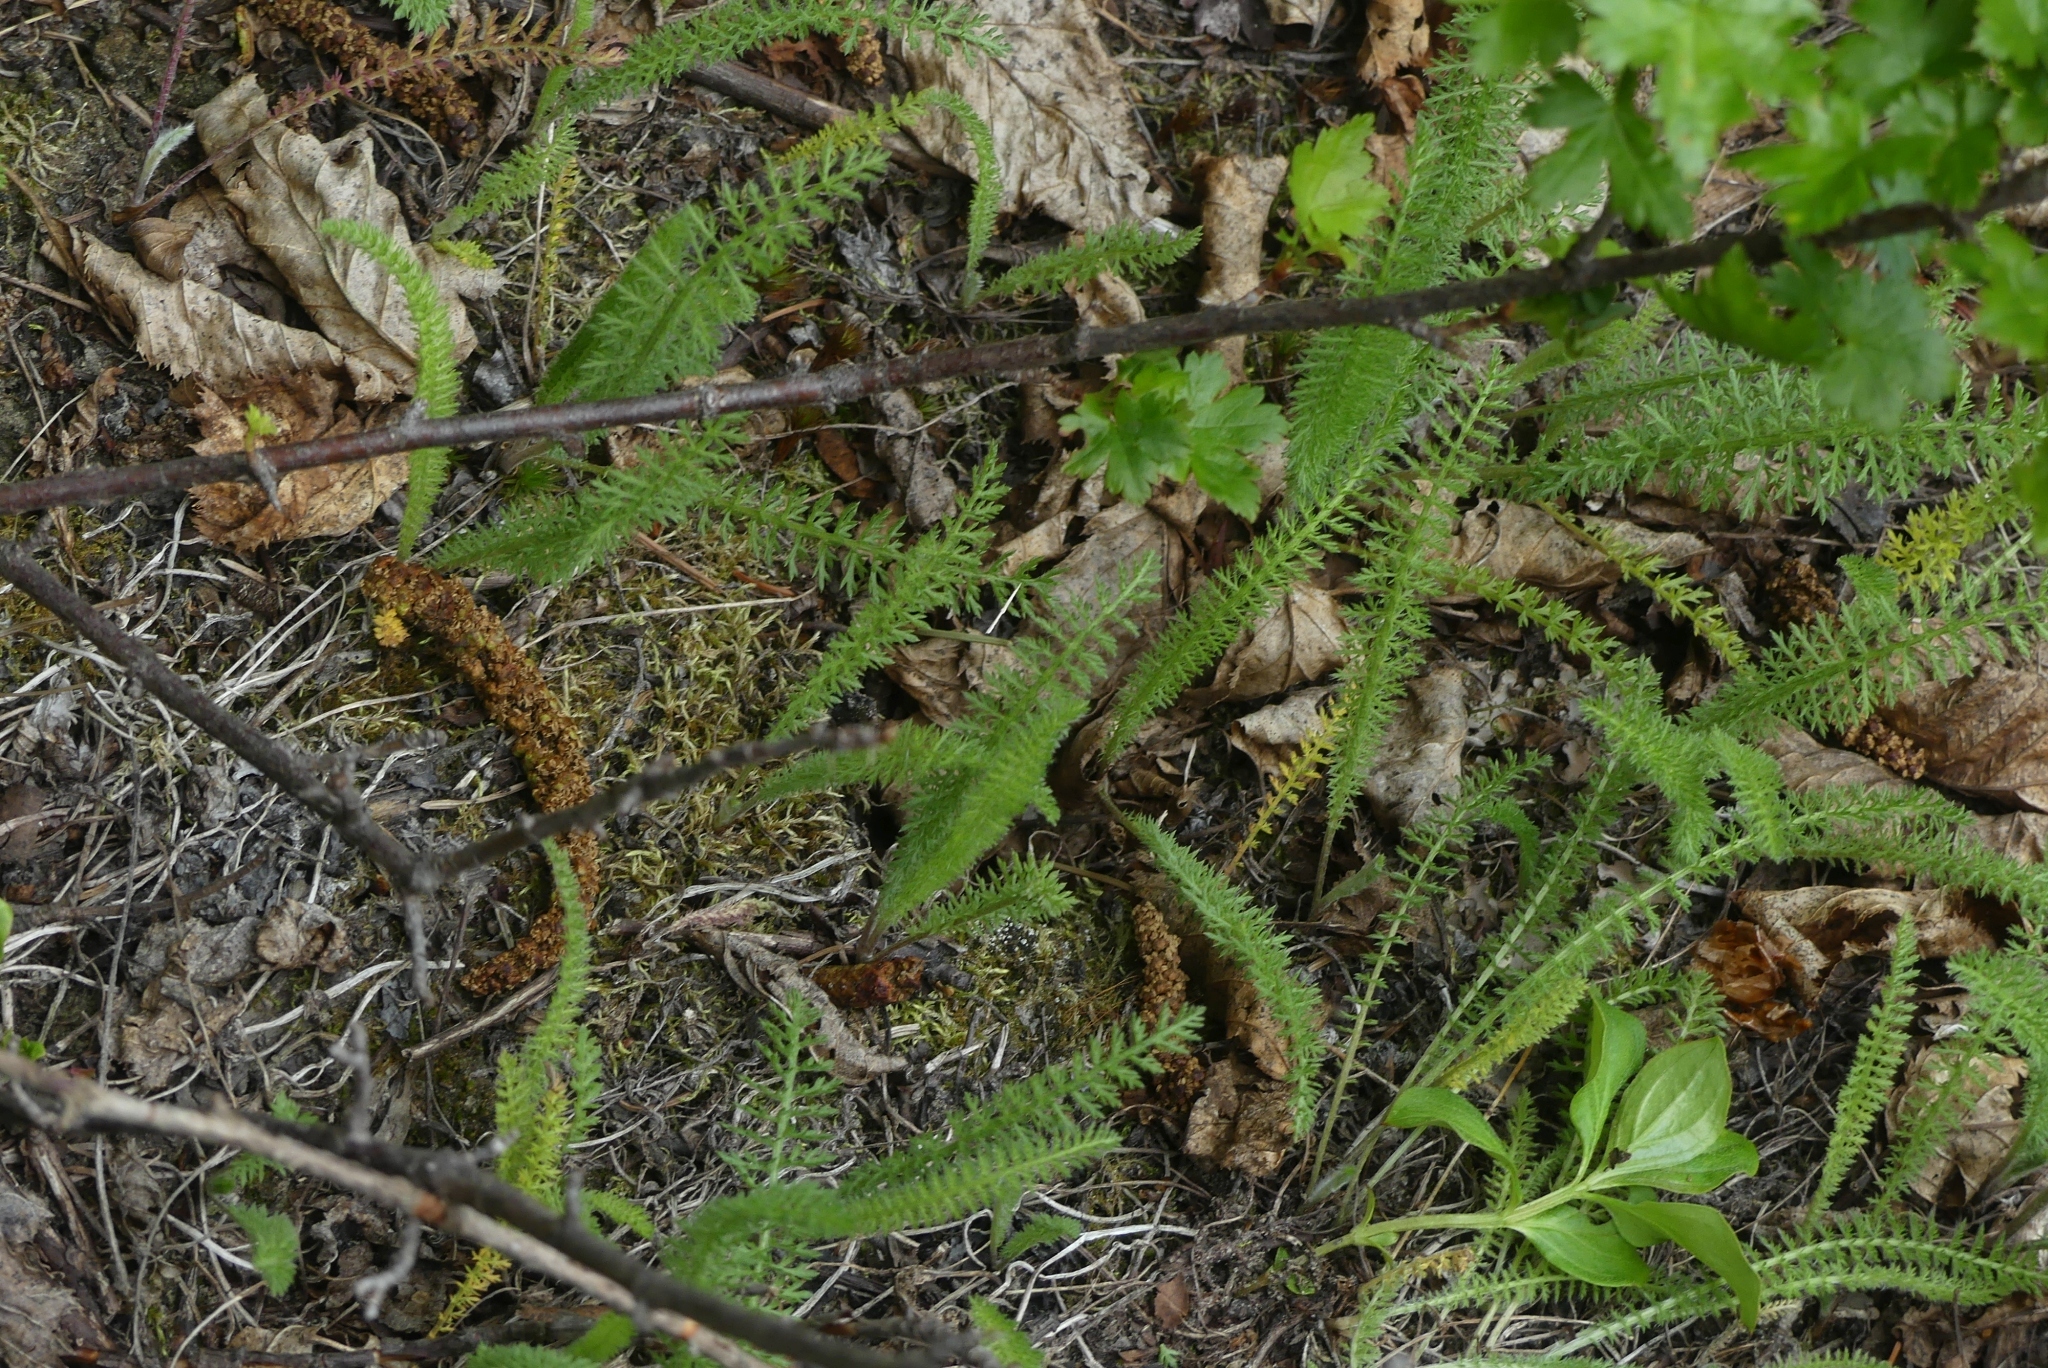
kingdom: Plantae
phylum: Tracheophyta
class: Magnoliopsida
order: Asterales
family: Asteraceae
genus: Achillea
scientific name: Achillea millefolium
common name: Yarrow
